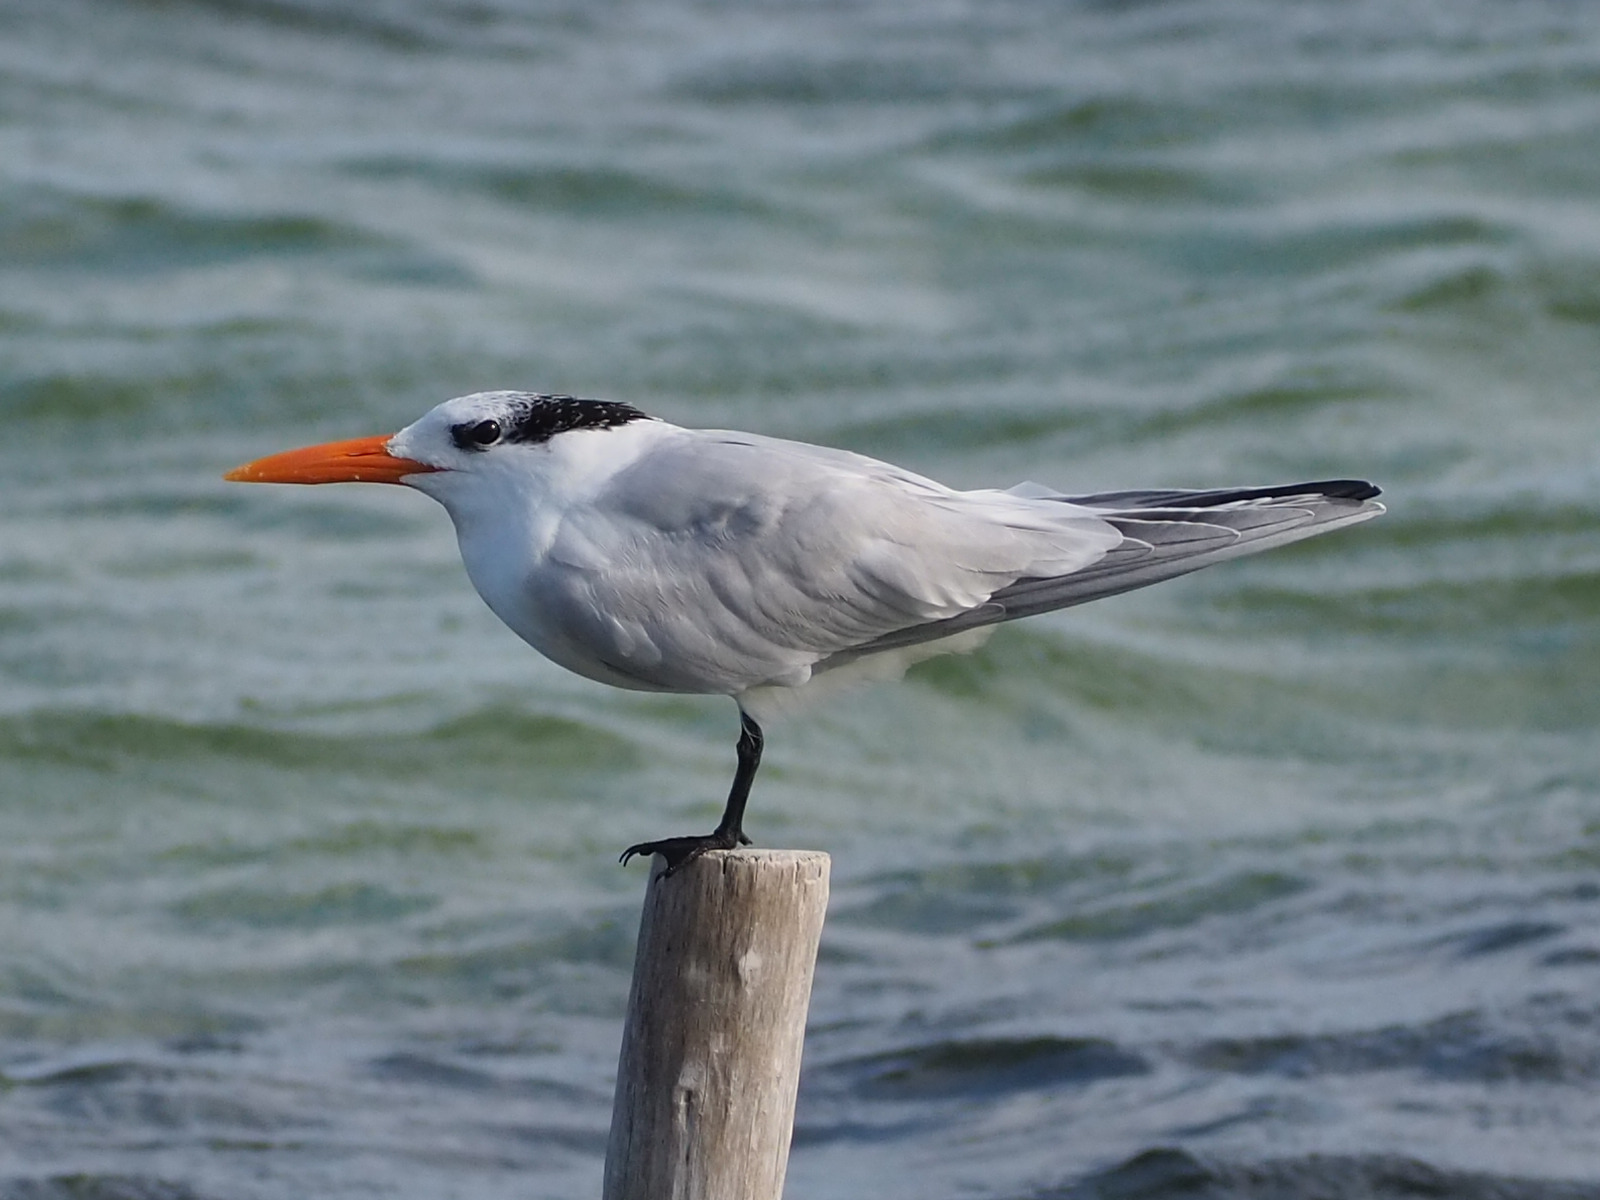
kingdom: Animalia
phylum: Chordata
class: Aves
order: Charadriiformes
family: Laridae
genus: Thalasseus
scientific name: Thalasseus maximus
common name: Royal tern
